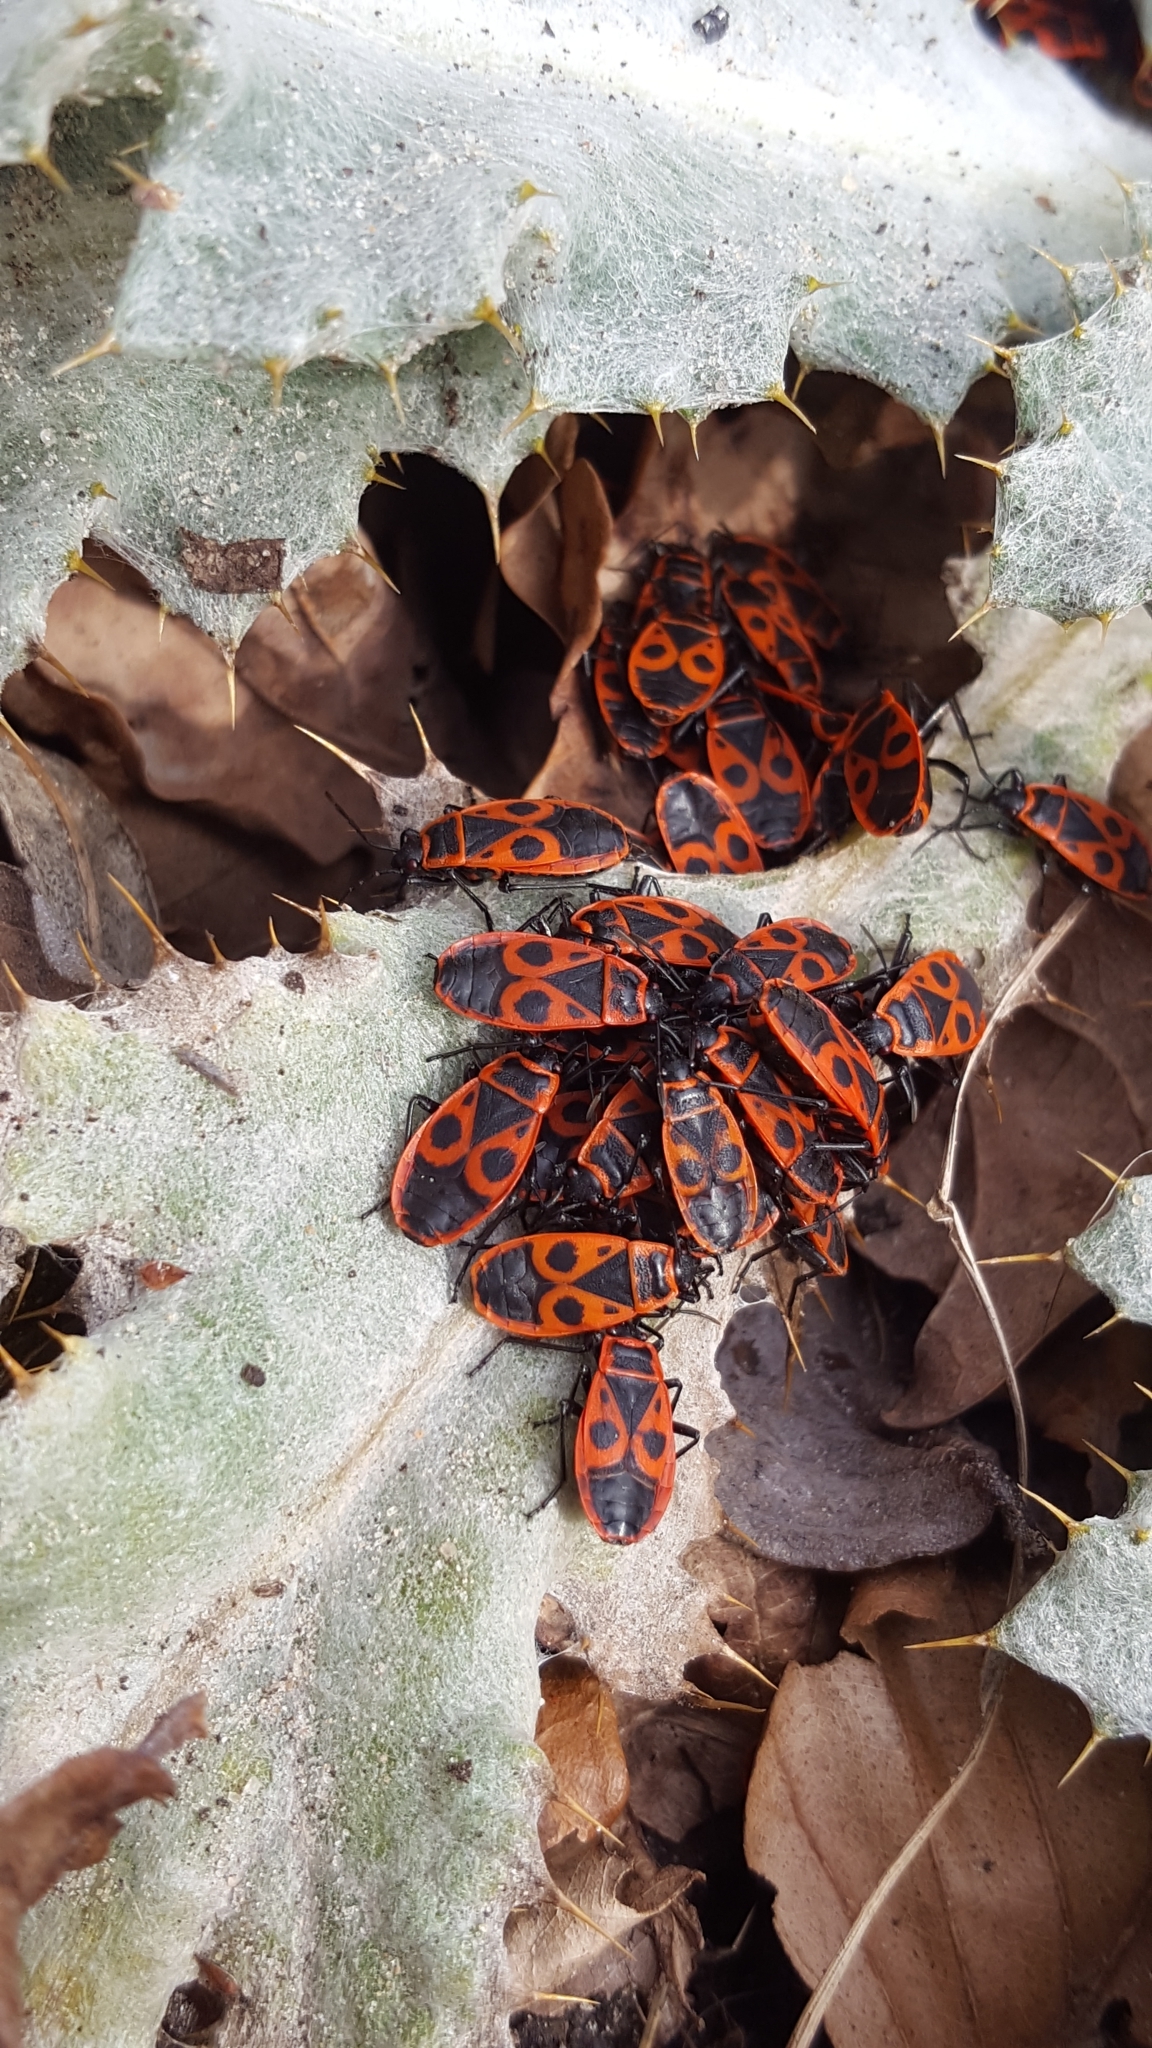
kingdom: Animalia
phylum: Arthropoda
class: Insecta
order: Hemiptera
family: Pyrrhocoridae
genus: Pyrrhocoris
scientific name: Pyrrhocoris apterus
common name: Firebug
